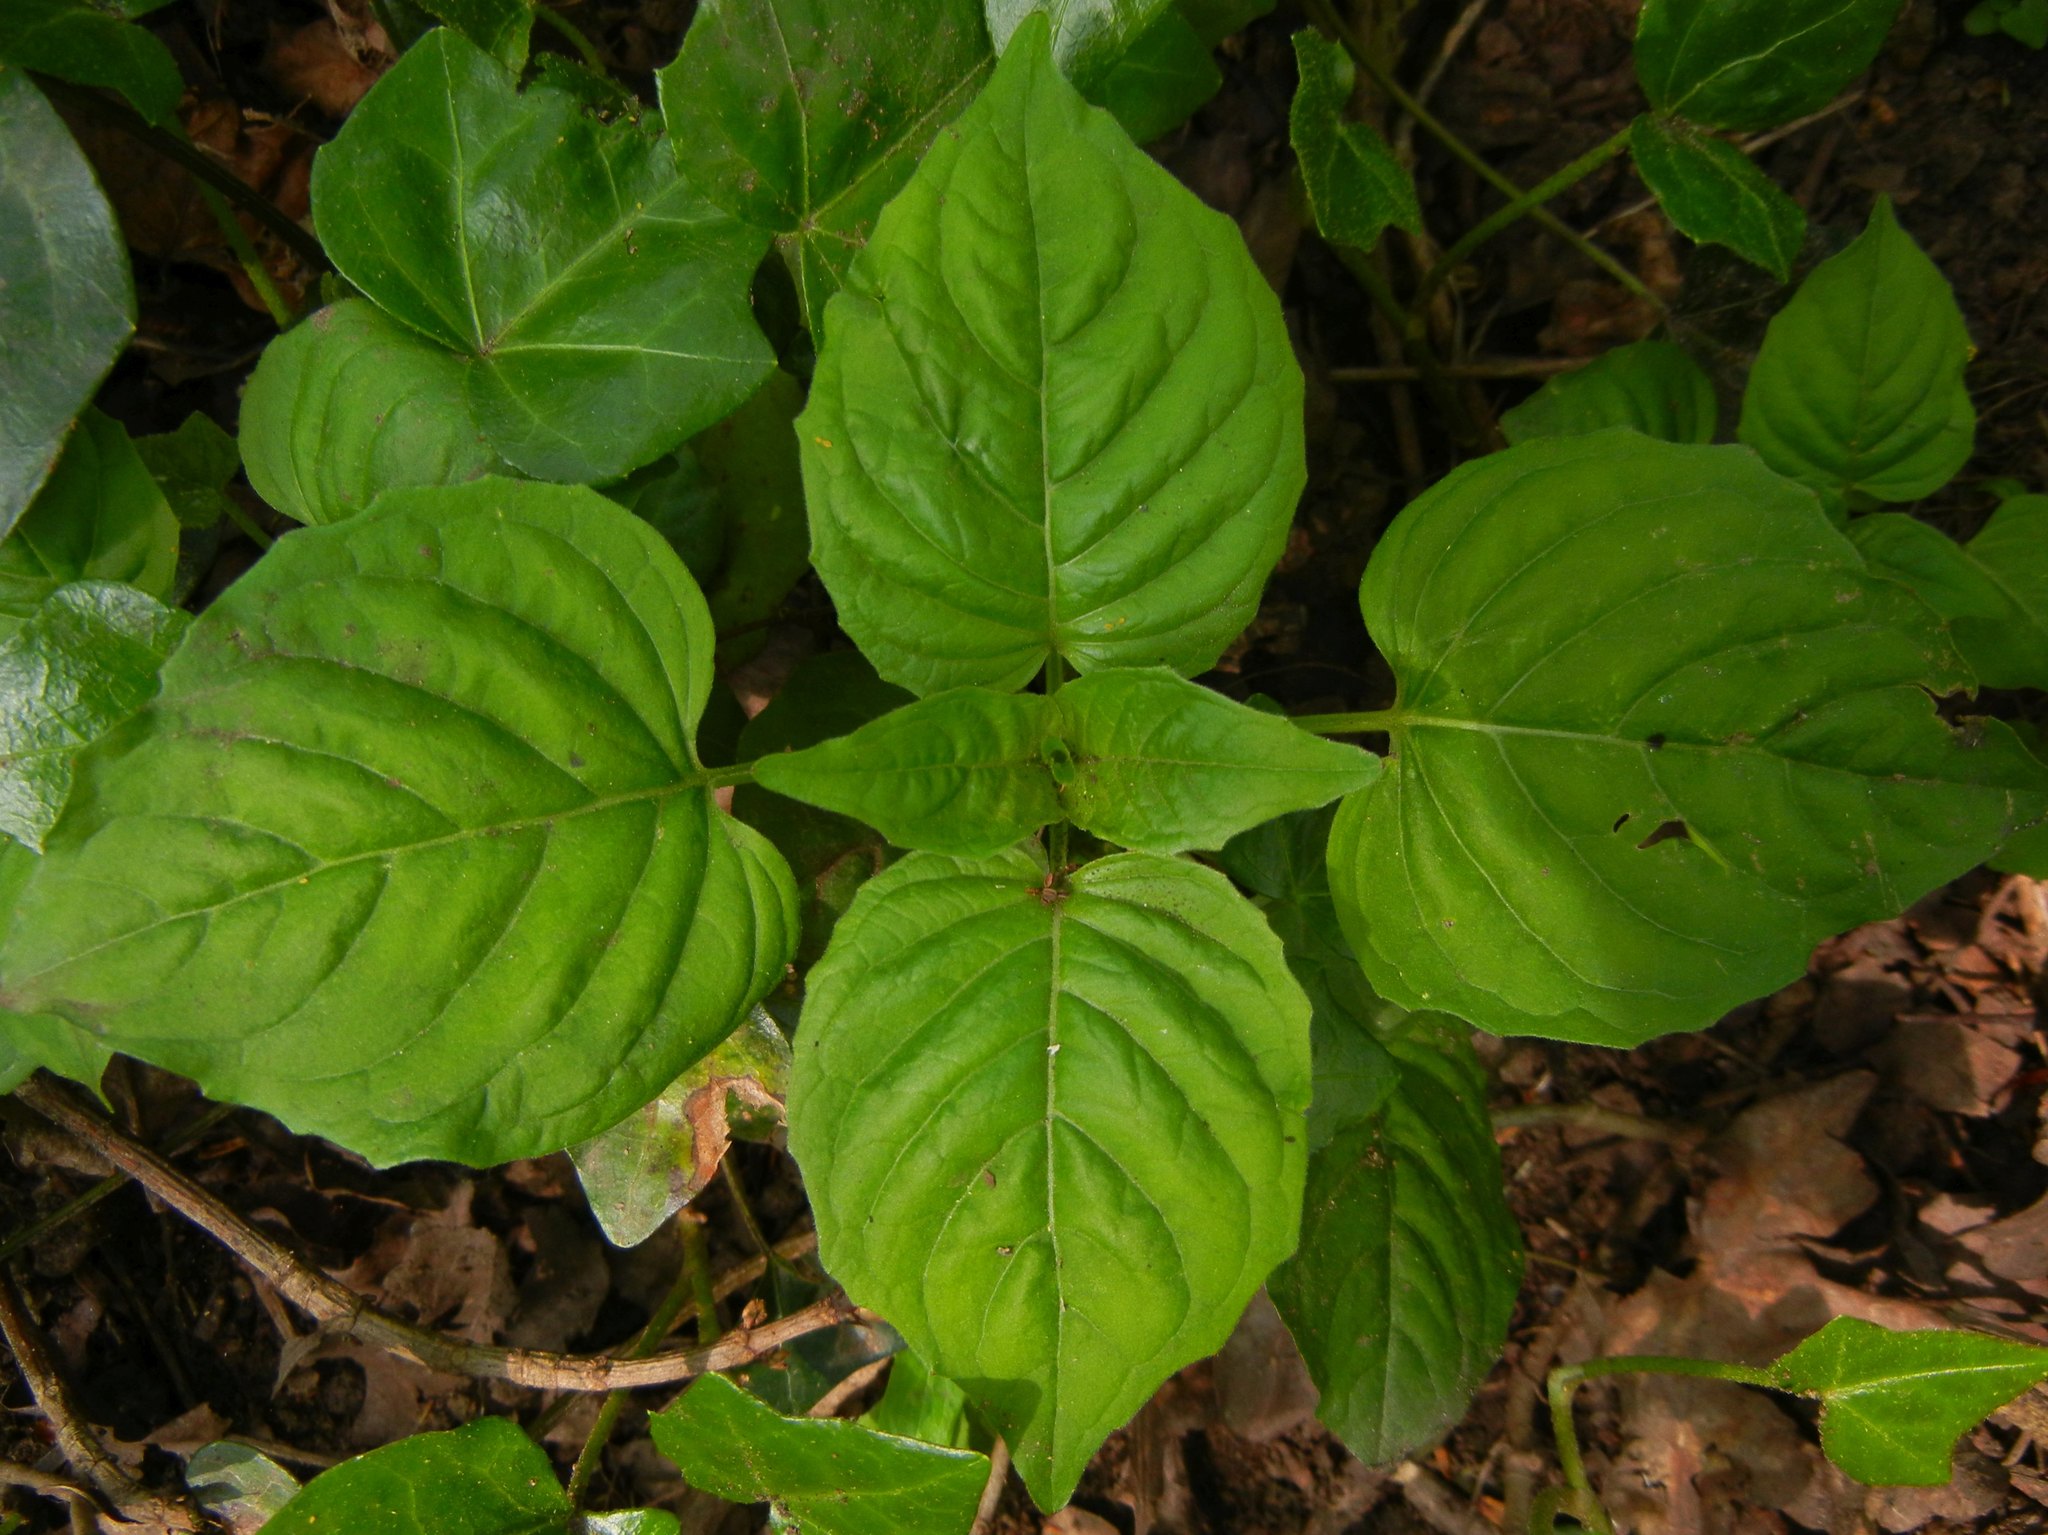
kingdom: Plantae
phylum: Tracheophyta
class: Magnoliopsida
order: Myrtales
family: Onagraceae
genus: Circaea
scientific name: Circaea lutetiana
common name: Enchanter's-nightshade
